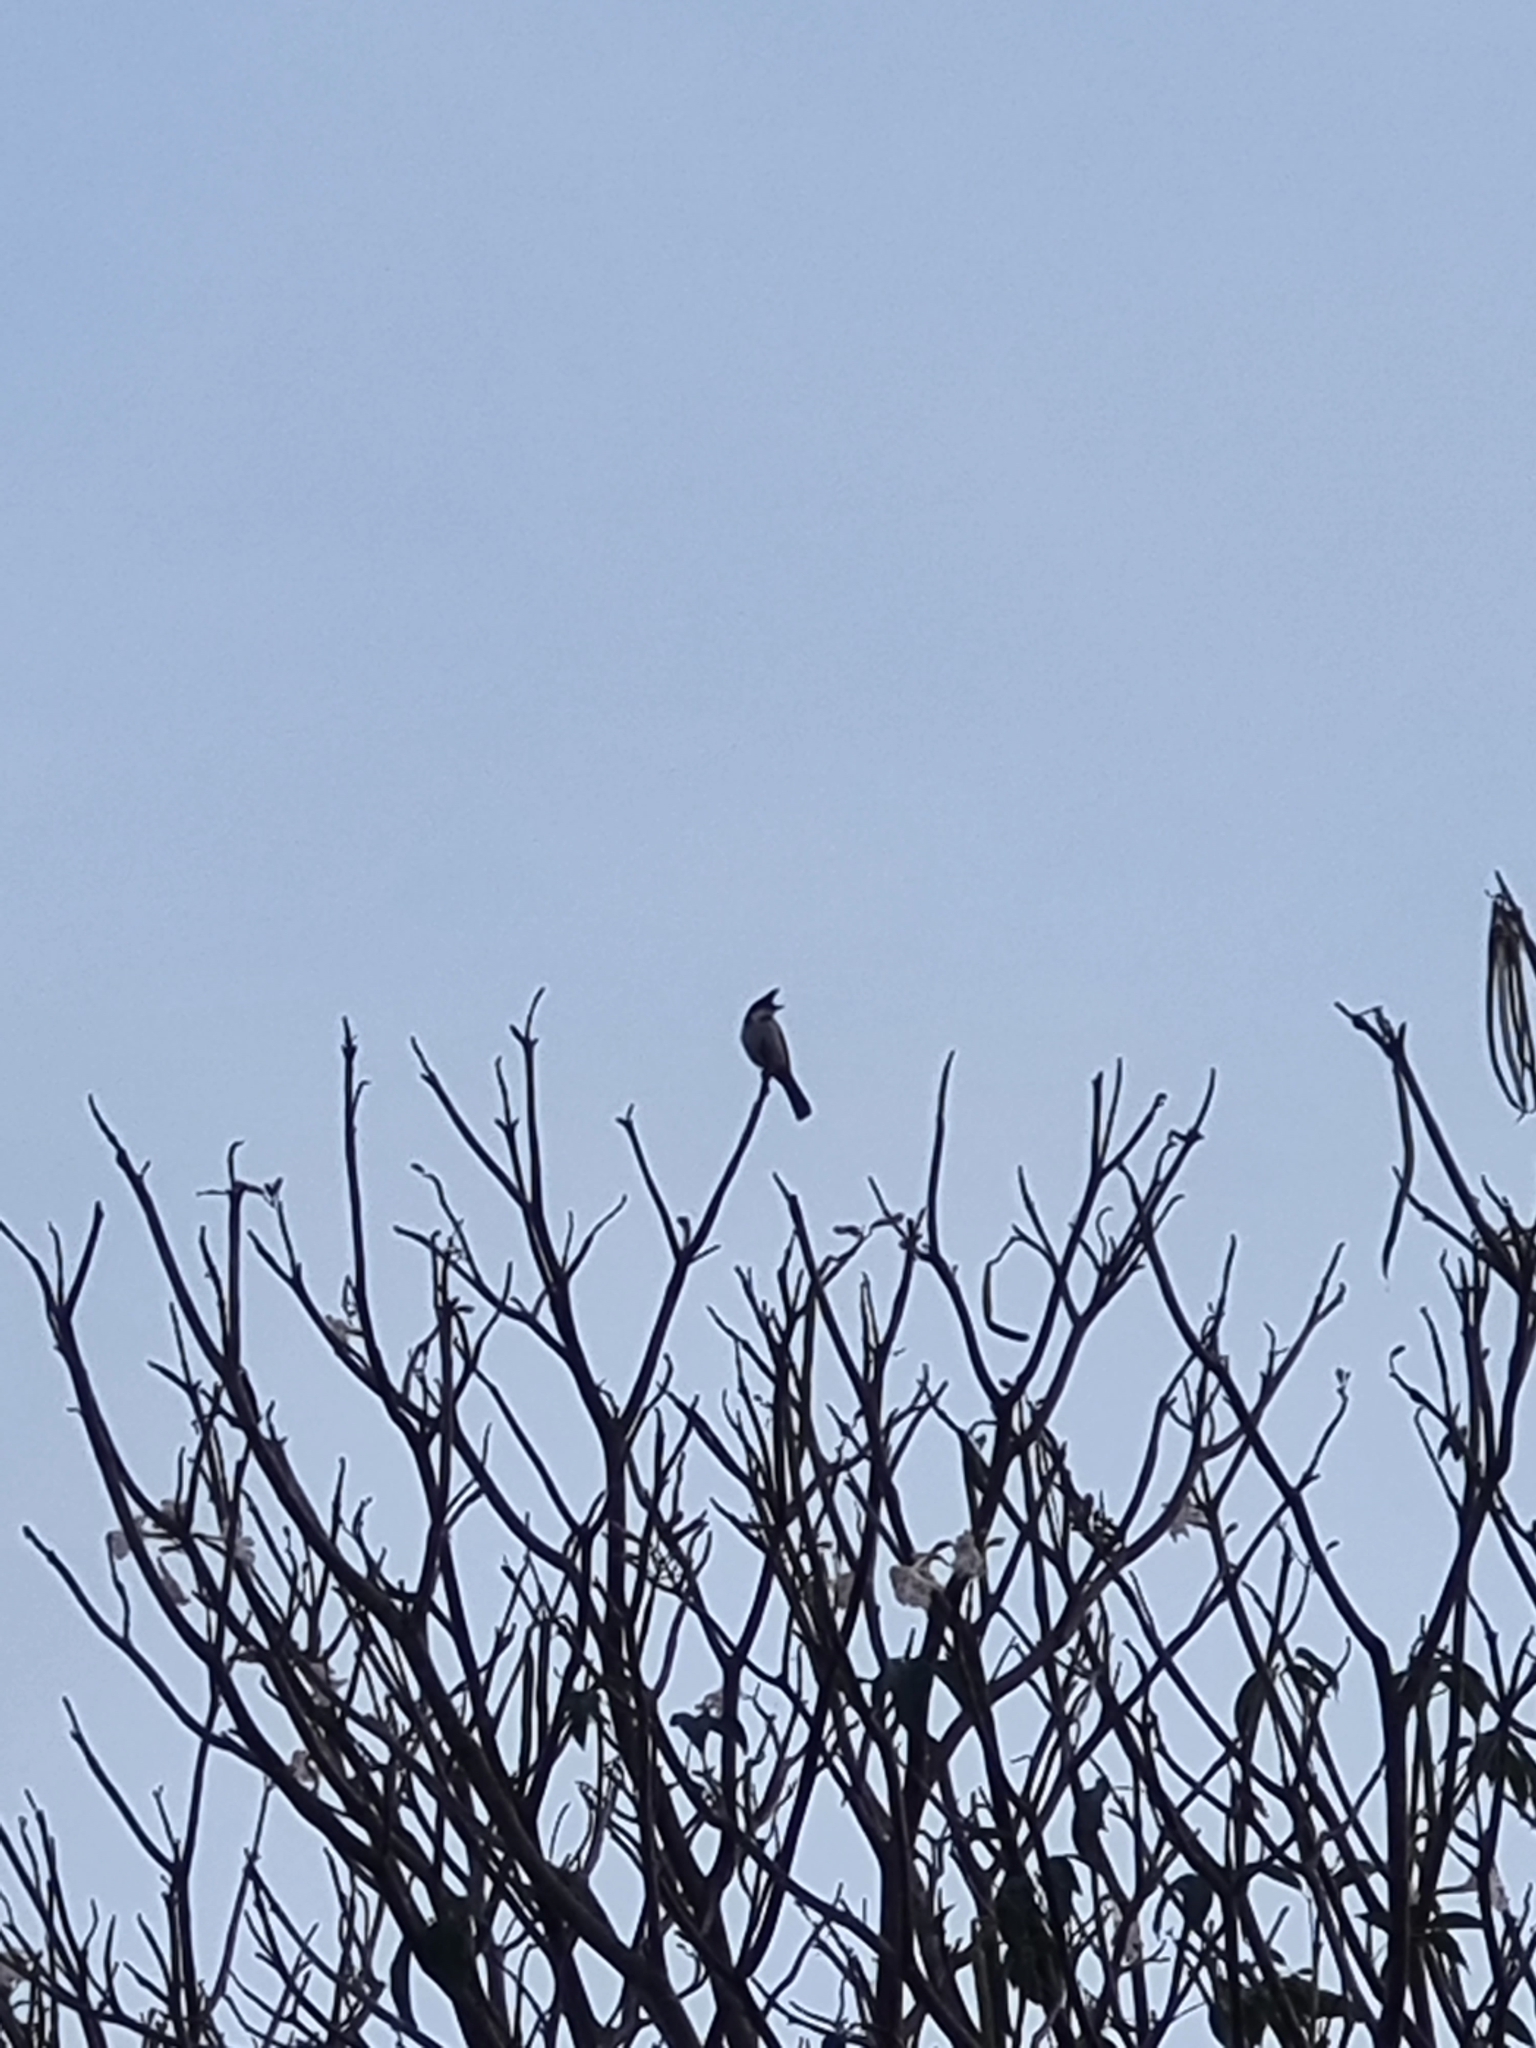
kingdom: Animalia
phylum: Chordata
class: Aves
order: Passeriformes
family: Pycnonotidae
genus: Pycnonotus
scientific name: Pycnonotus jocosus
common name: Red-whiskered bulbul
